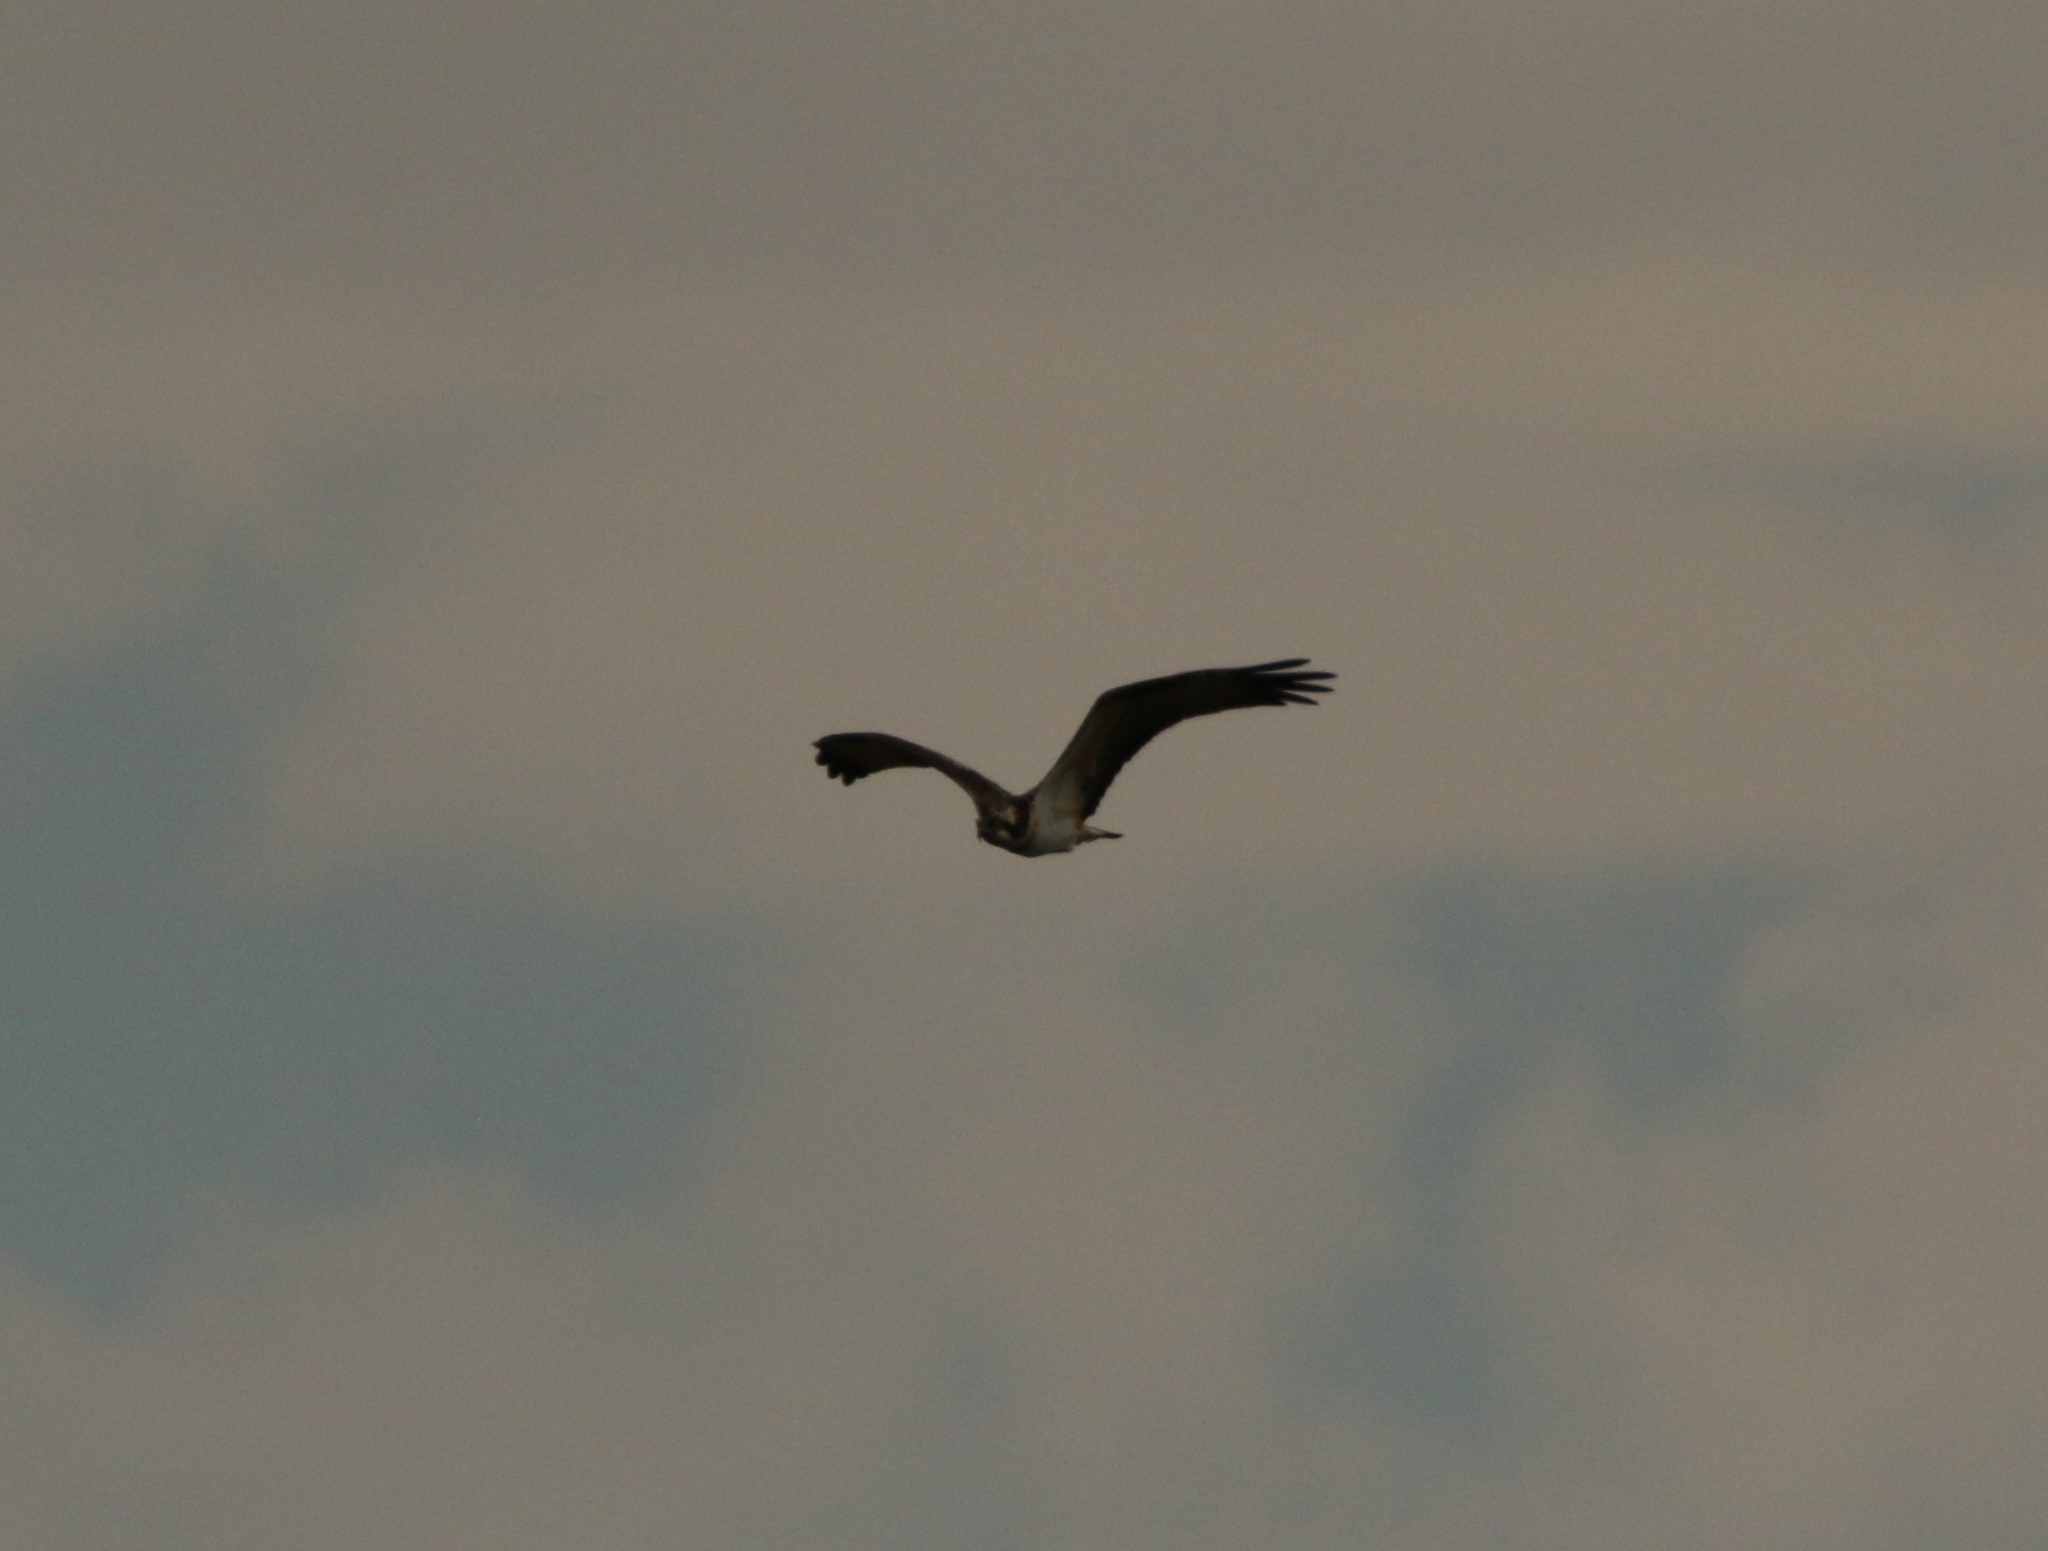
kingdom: Animalia
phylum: Chordata
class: Aves
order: Accipitriformes
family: Pandionidae
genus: Pandion
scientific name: Pandion haliaetus
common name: Osprey
